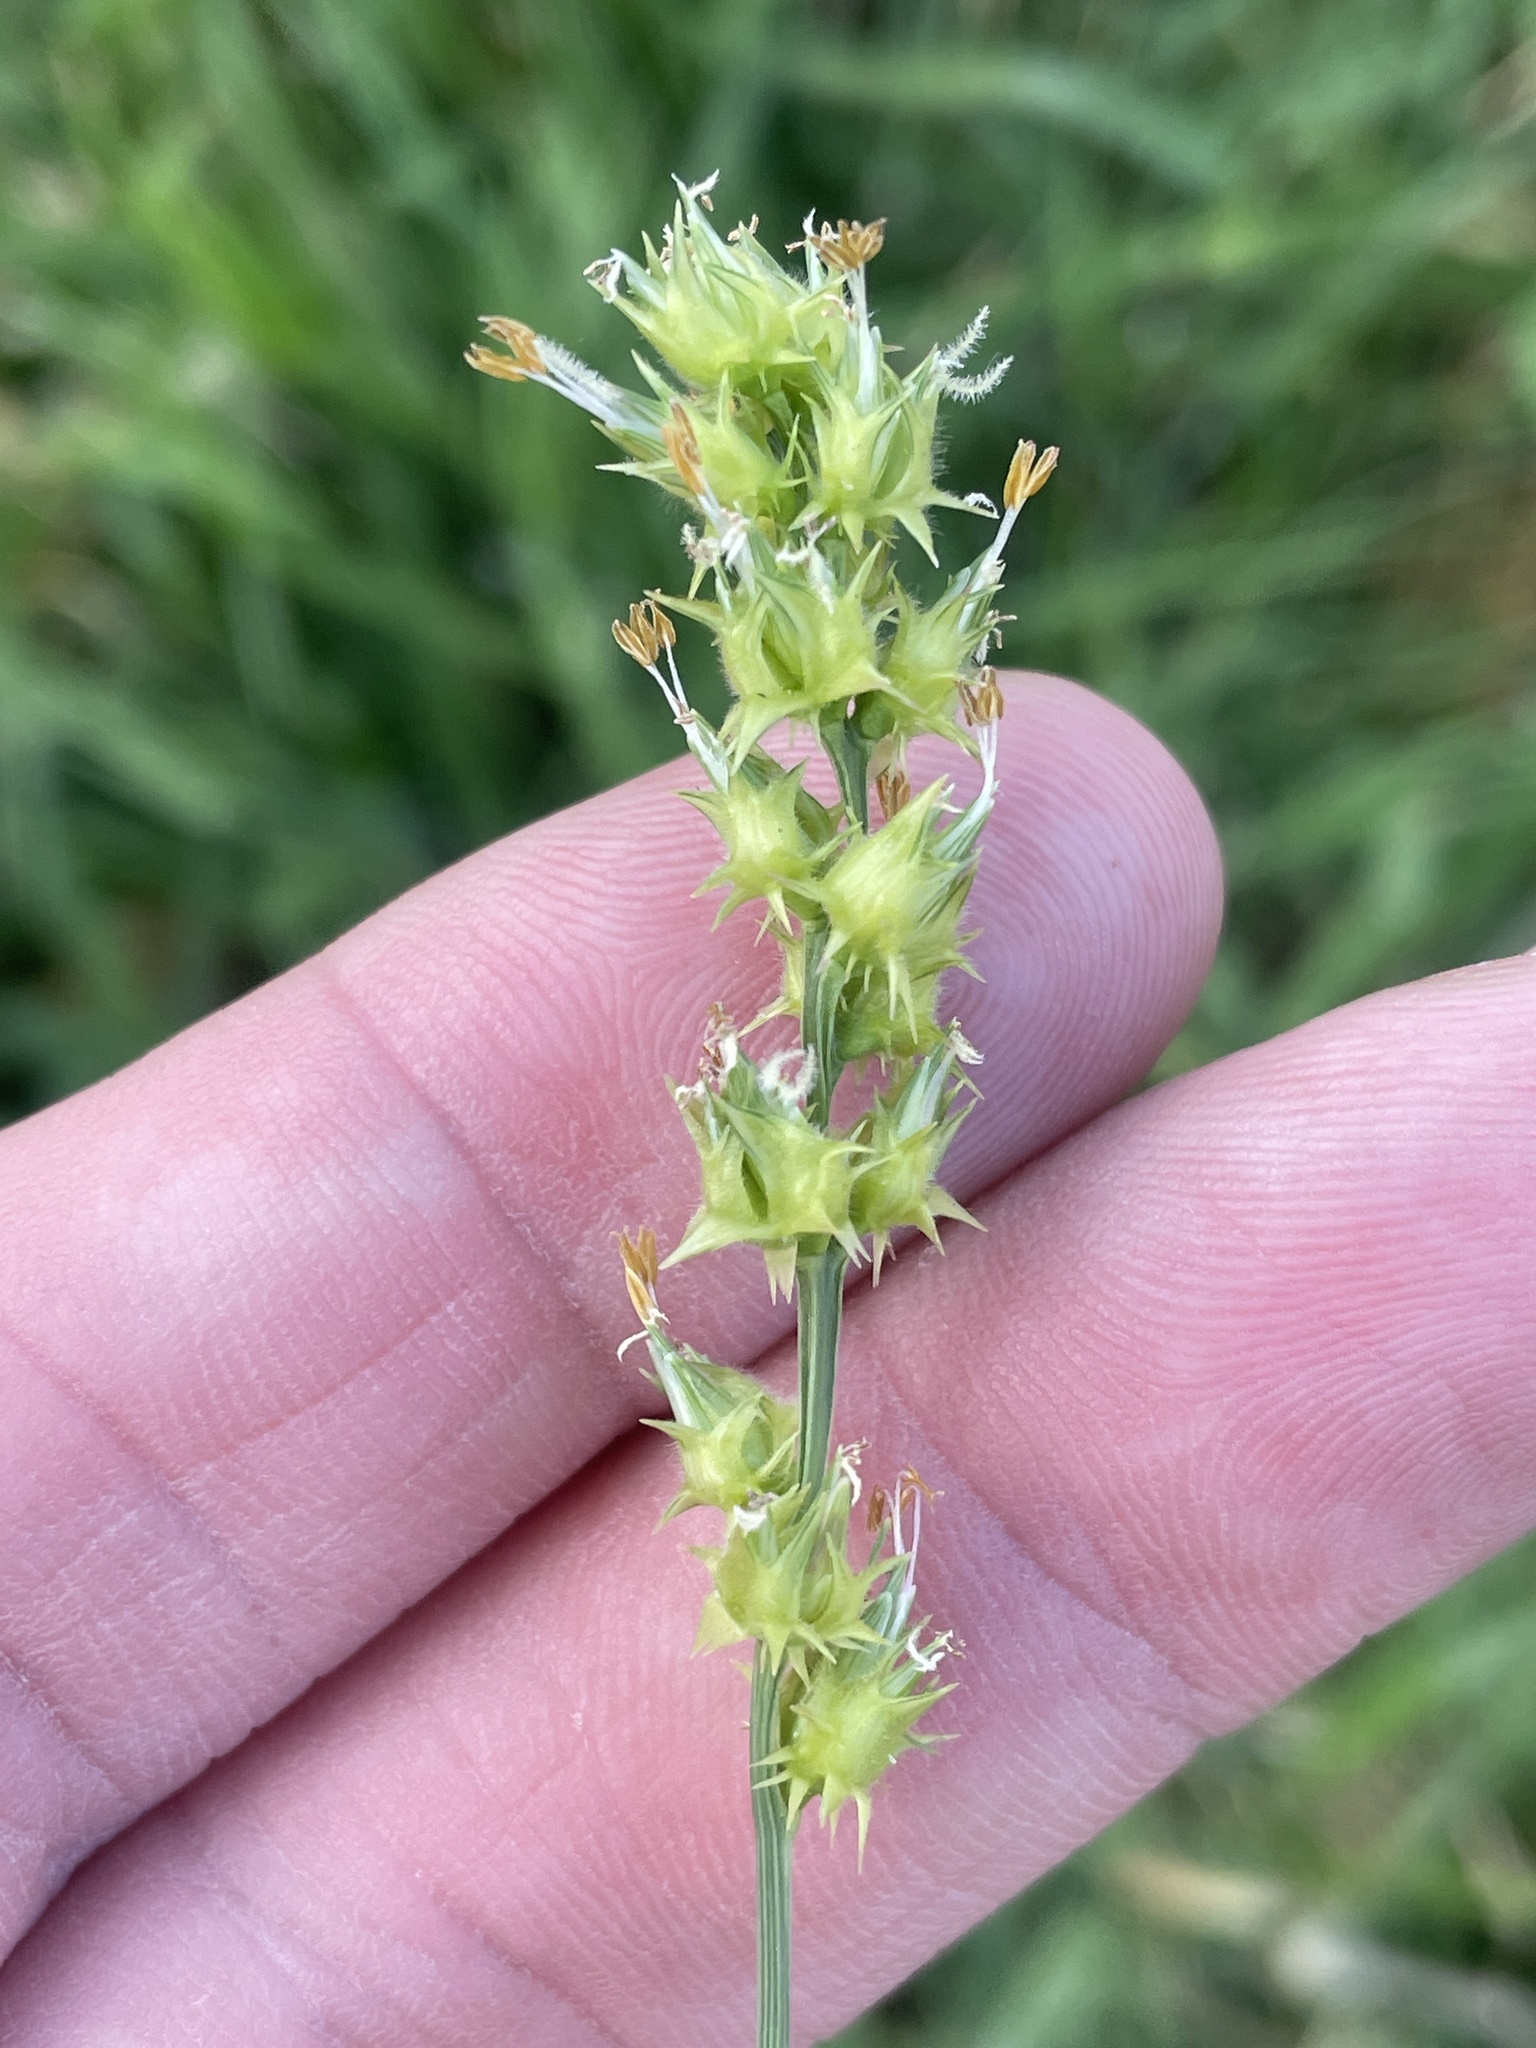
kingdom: Plantae
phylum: Tracheophyta
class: Liliopsida
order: Poales
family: Poaceae
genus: Cenchrus
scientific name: Cenchrus spinifex
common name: Coast sandbur
